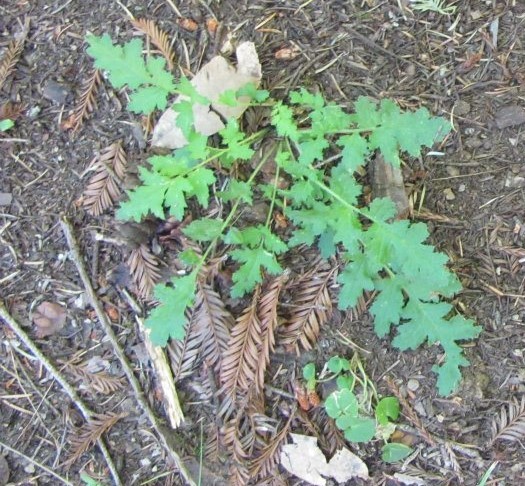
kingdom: Plantae
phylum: Tracheophyta
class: Magnoliopsida
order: Lamiales
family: Orobanchaceae
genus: Pedicularis
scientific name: Pedicularis dudleyi
